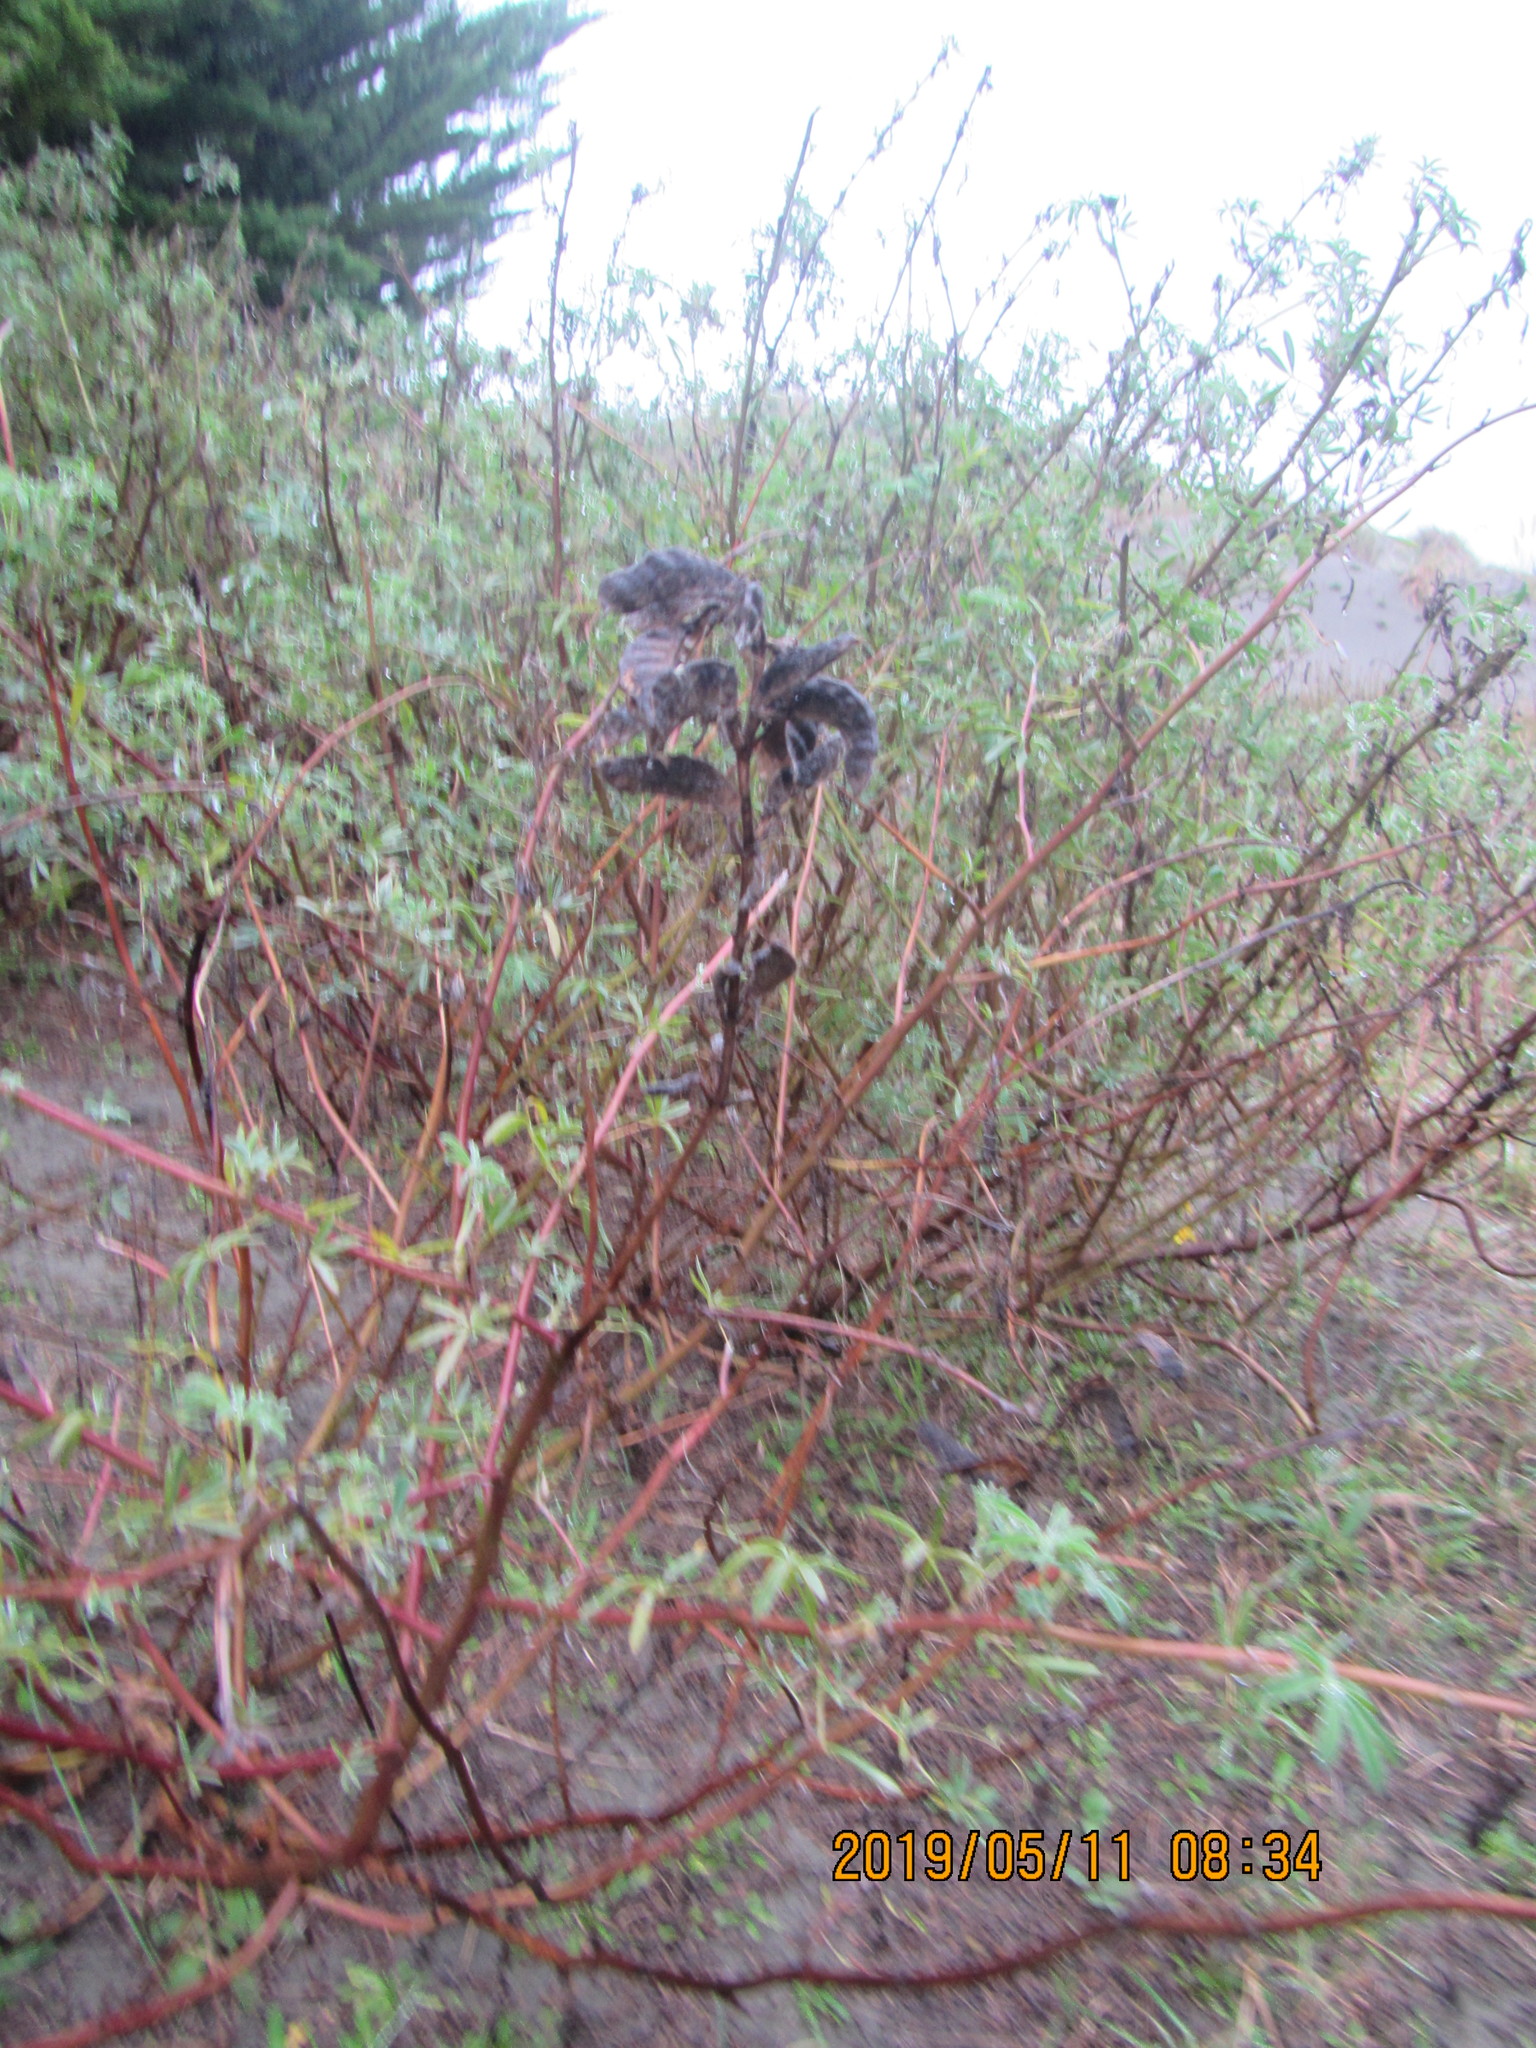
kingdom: Plantae
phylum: Tracheophyta
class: Magnoliopsida
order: Fabales
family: Fabaceae
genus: Lupinus
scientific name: Lupinus arboreus
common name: Yellow bush lupine
